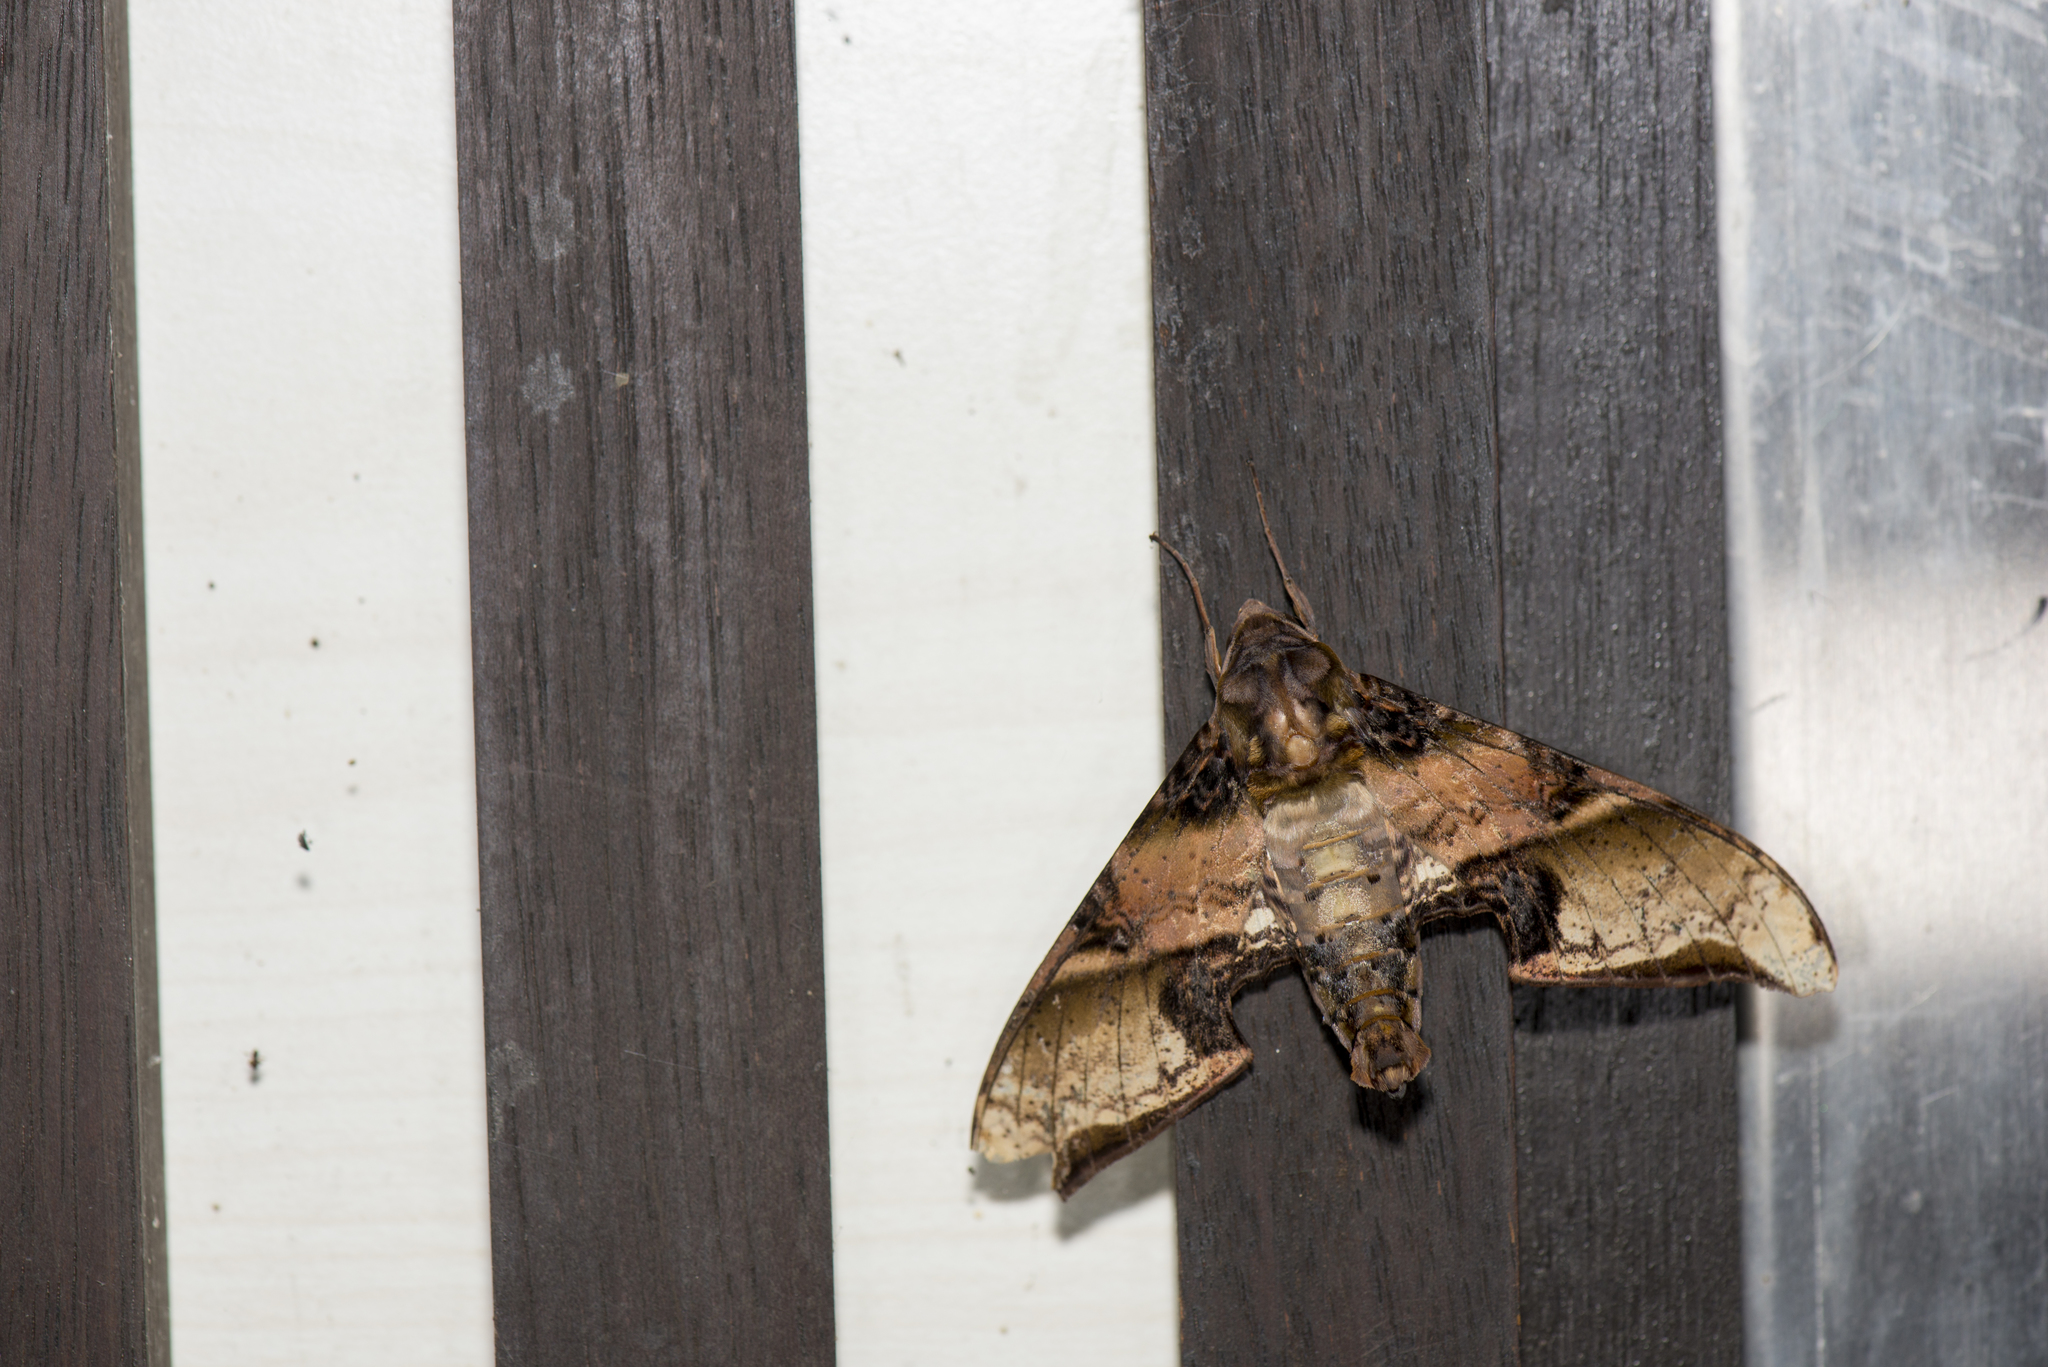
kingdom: Animalia
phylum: Arthropoda
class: Insecta
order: Lepidoptera
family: Sphingidae
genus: Amplypterus
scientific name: Amplypterus mansoni
